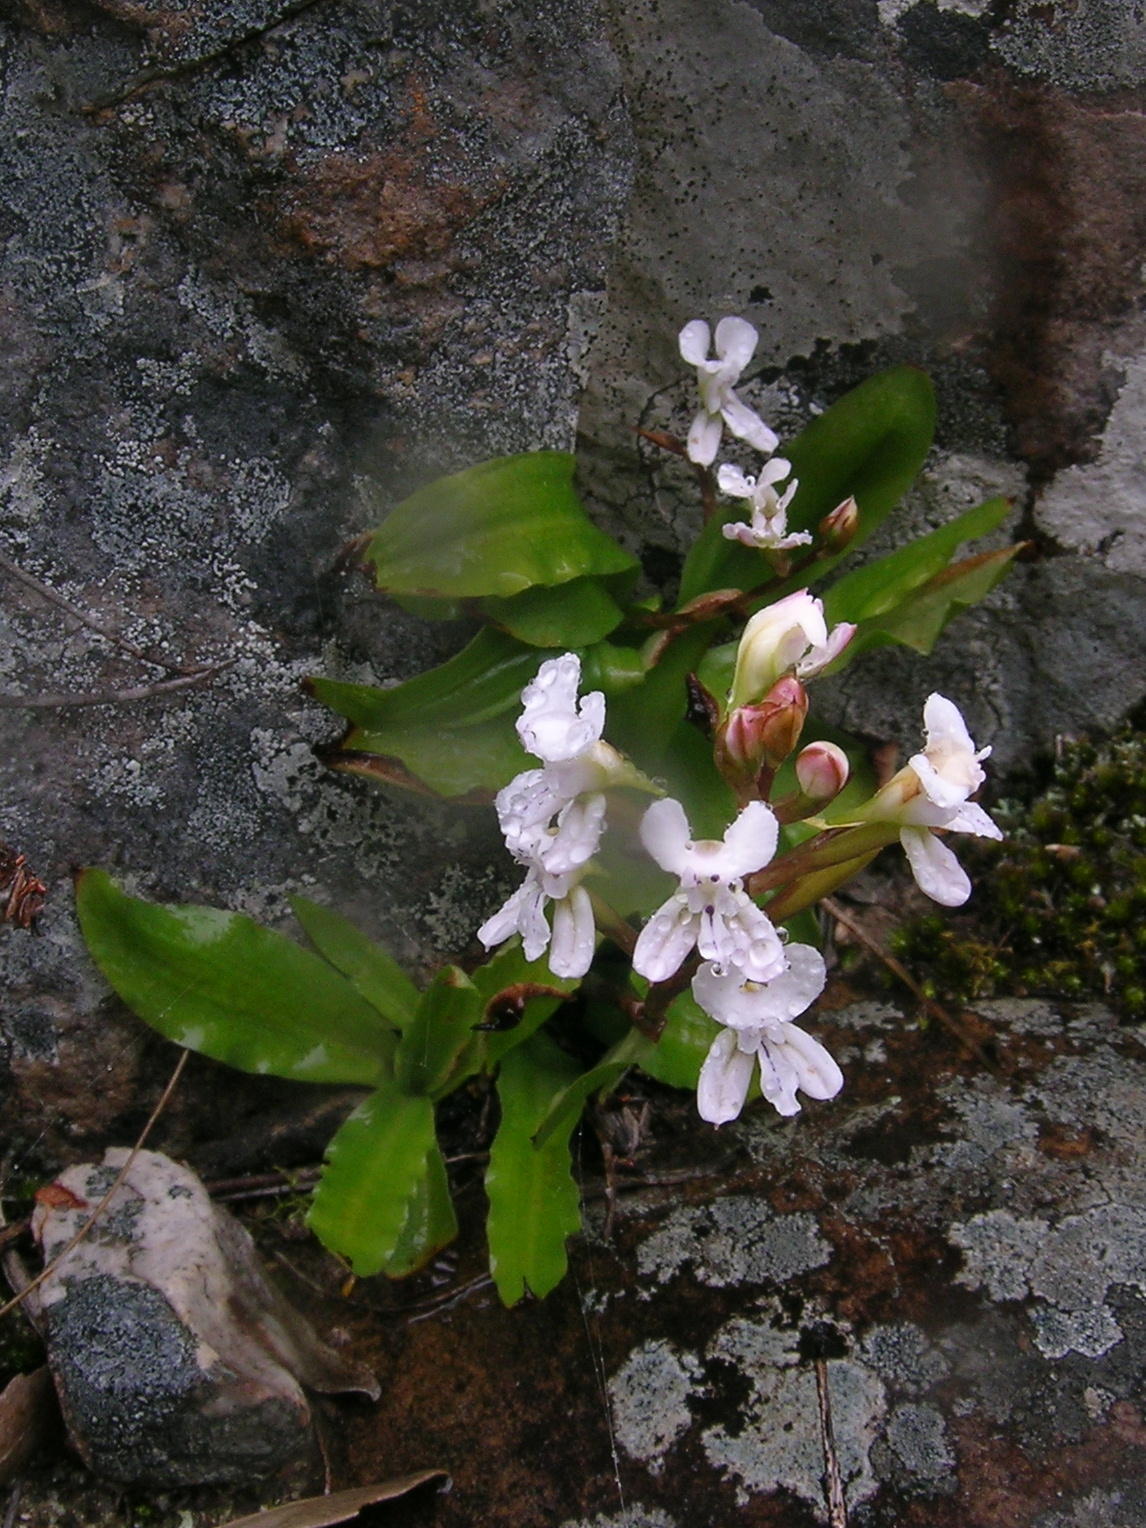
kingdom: Plantae
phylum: Tracheophyta
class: Liliopsida
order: Asparagales
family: Orchidaceae
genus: Disa
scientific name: Disa sagittalis
